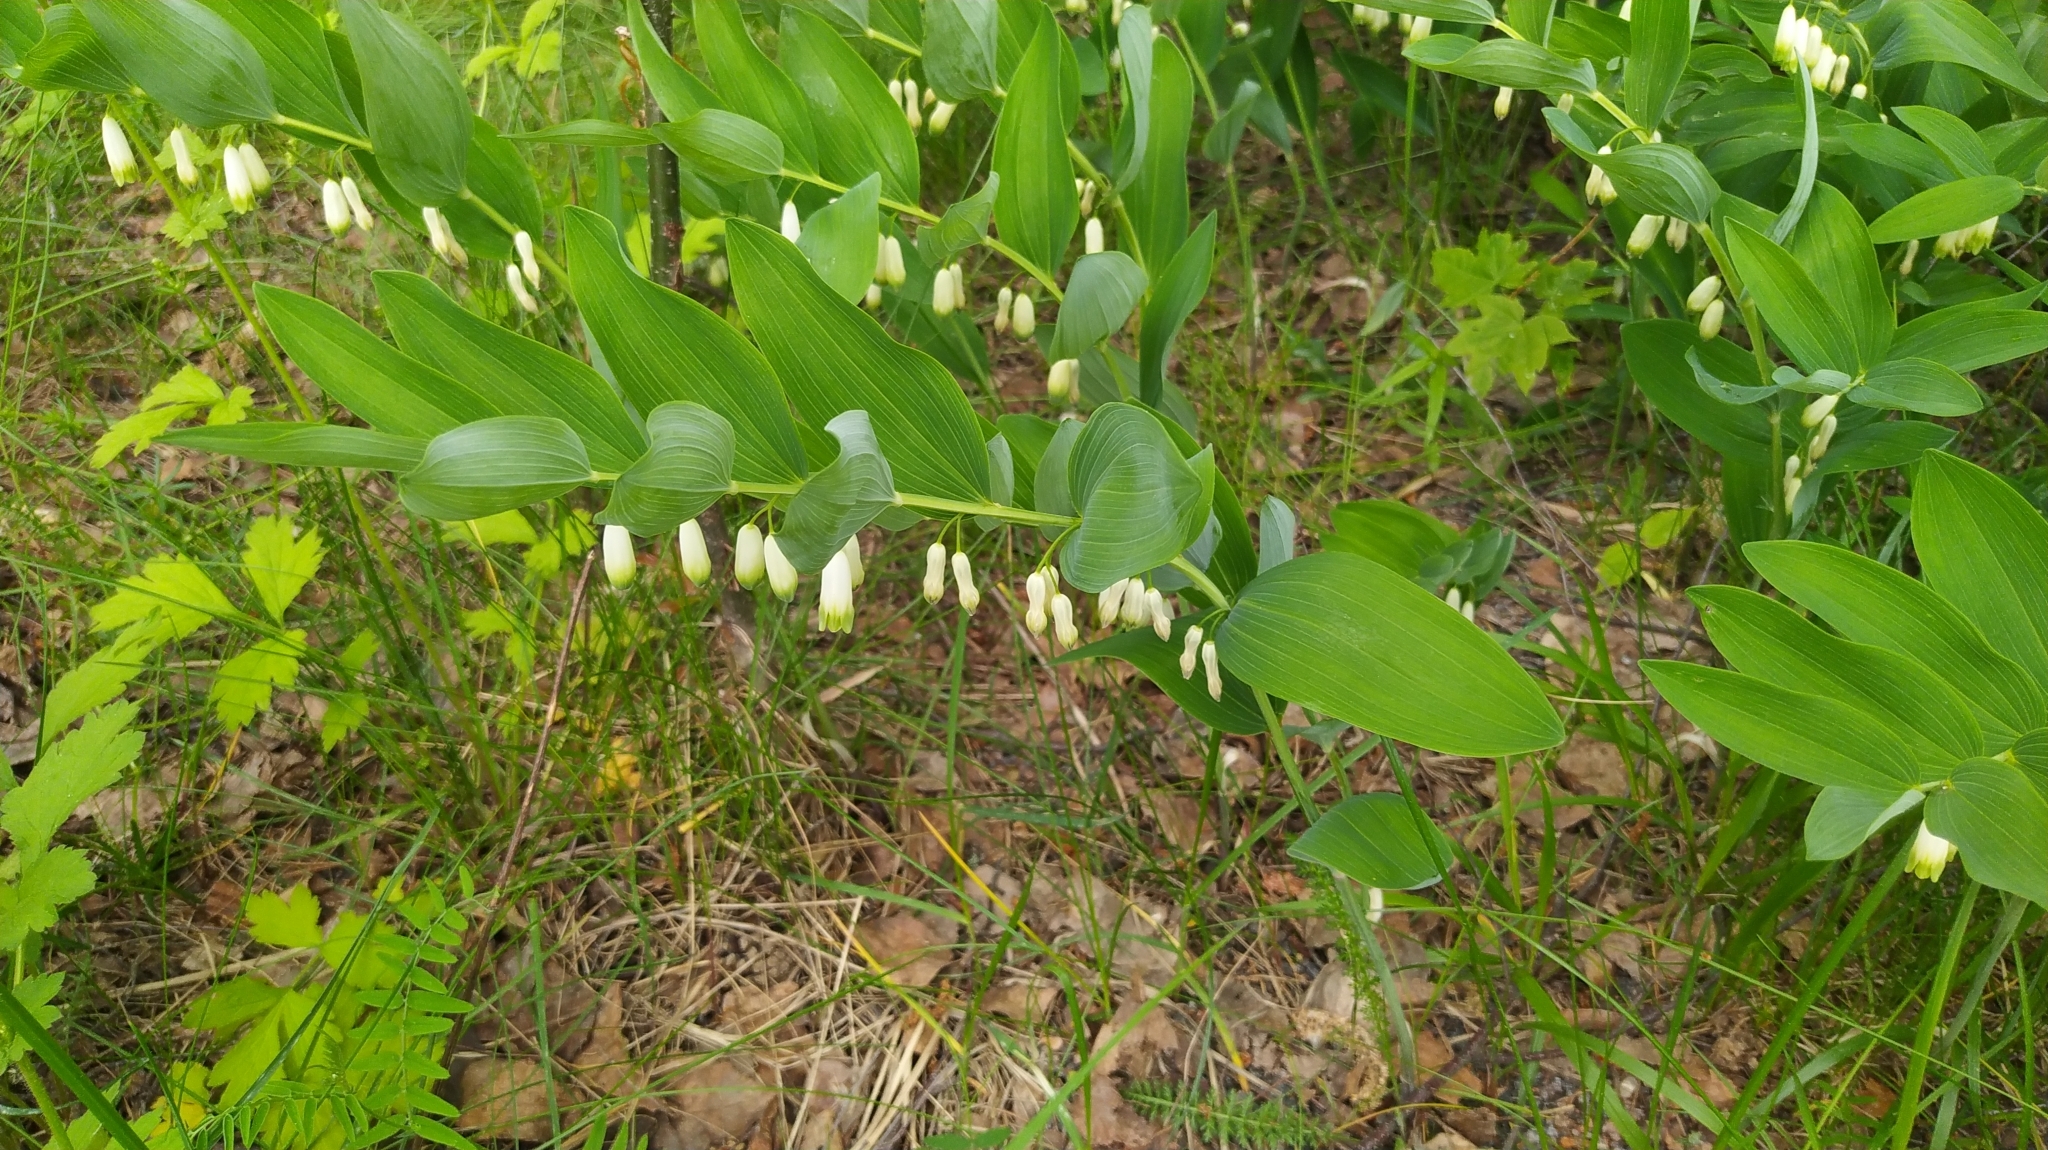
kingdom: Plantae
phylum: Tracheophyta
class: Liliopsida
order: Asparagales
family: Asparagaceae
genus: Polygonatum
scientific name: Polygonatum odoratum
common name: Angular solomon's-seal
